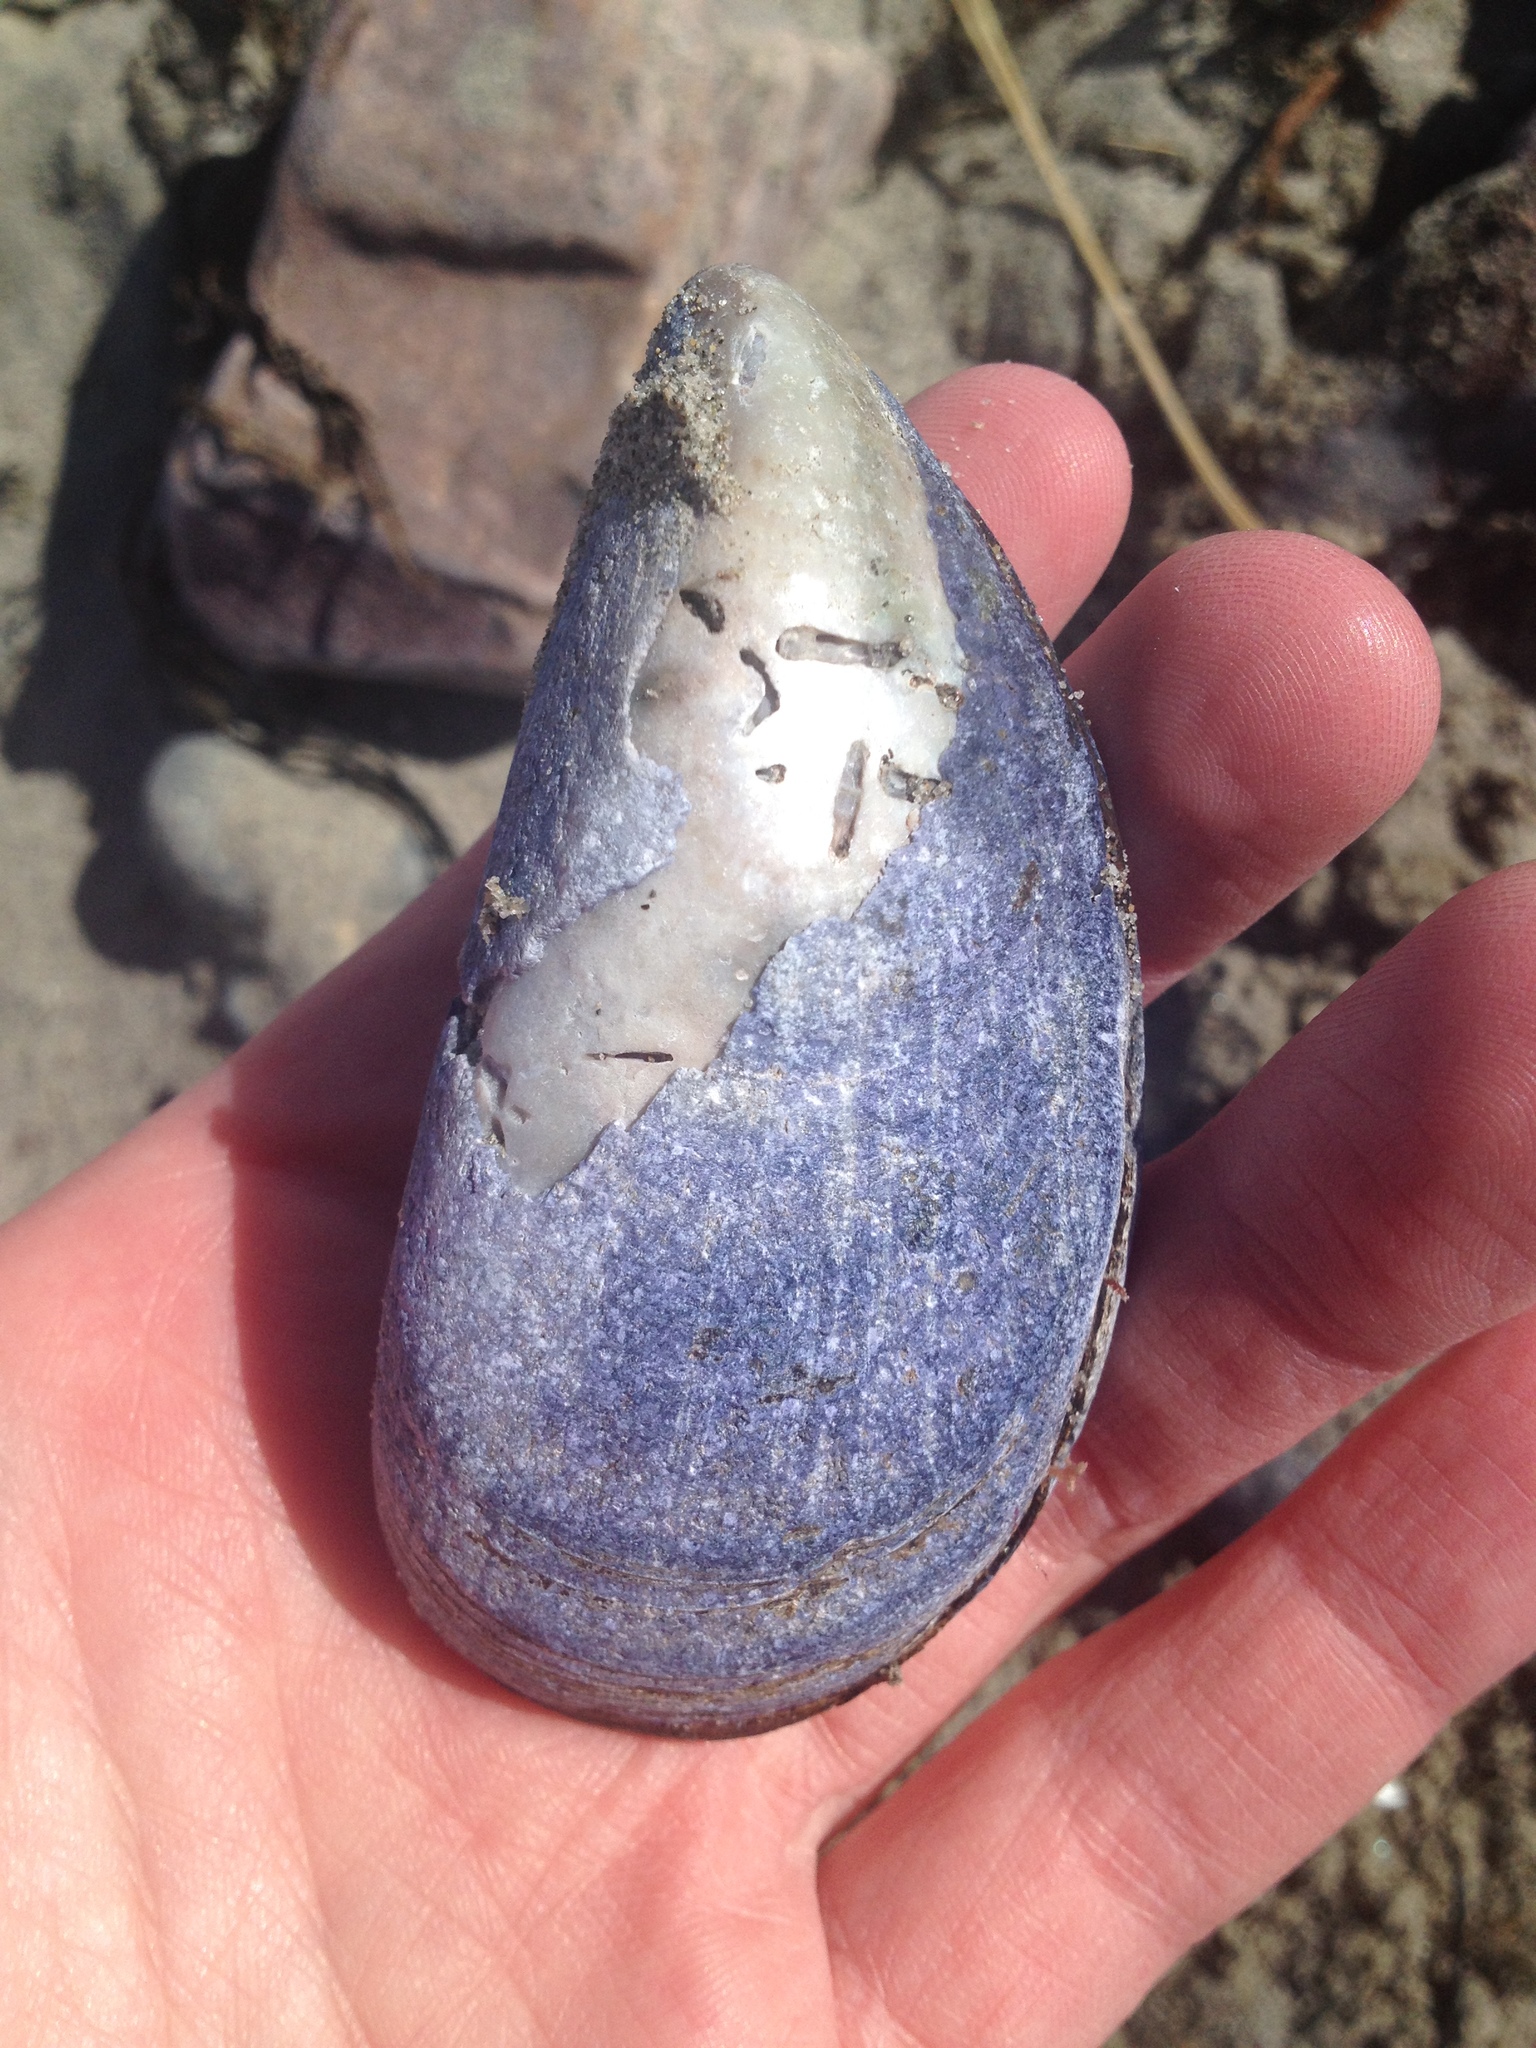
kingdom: Animalia
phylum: Mollusca
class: Bivalvia
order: Mytilida
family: Mytilidae
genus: Mytilus
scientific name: Mytilus edulis
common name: Blue mussel
